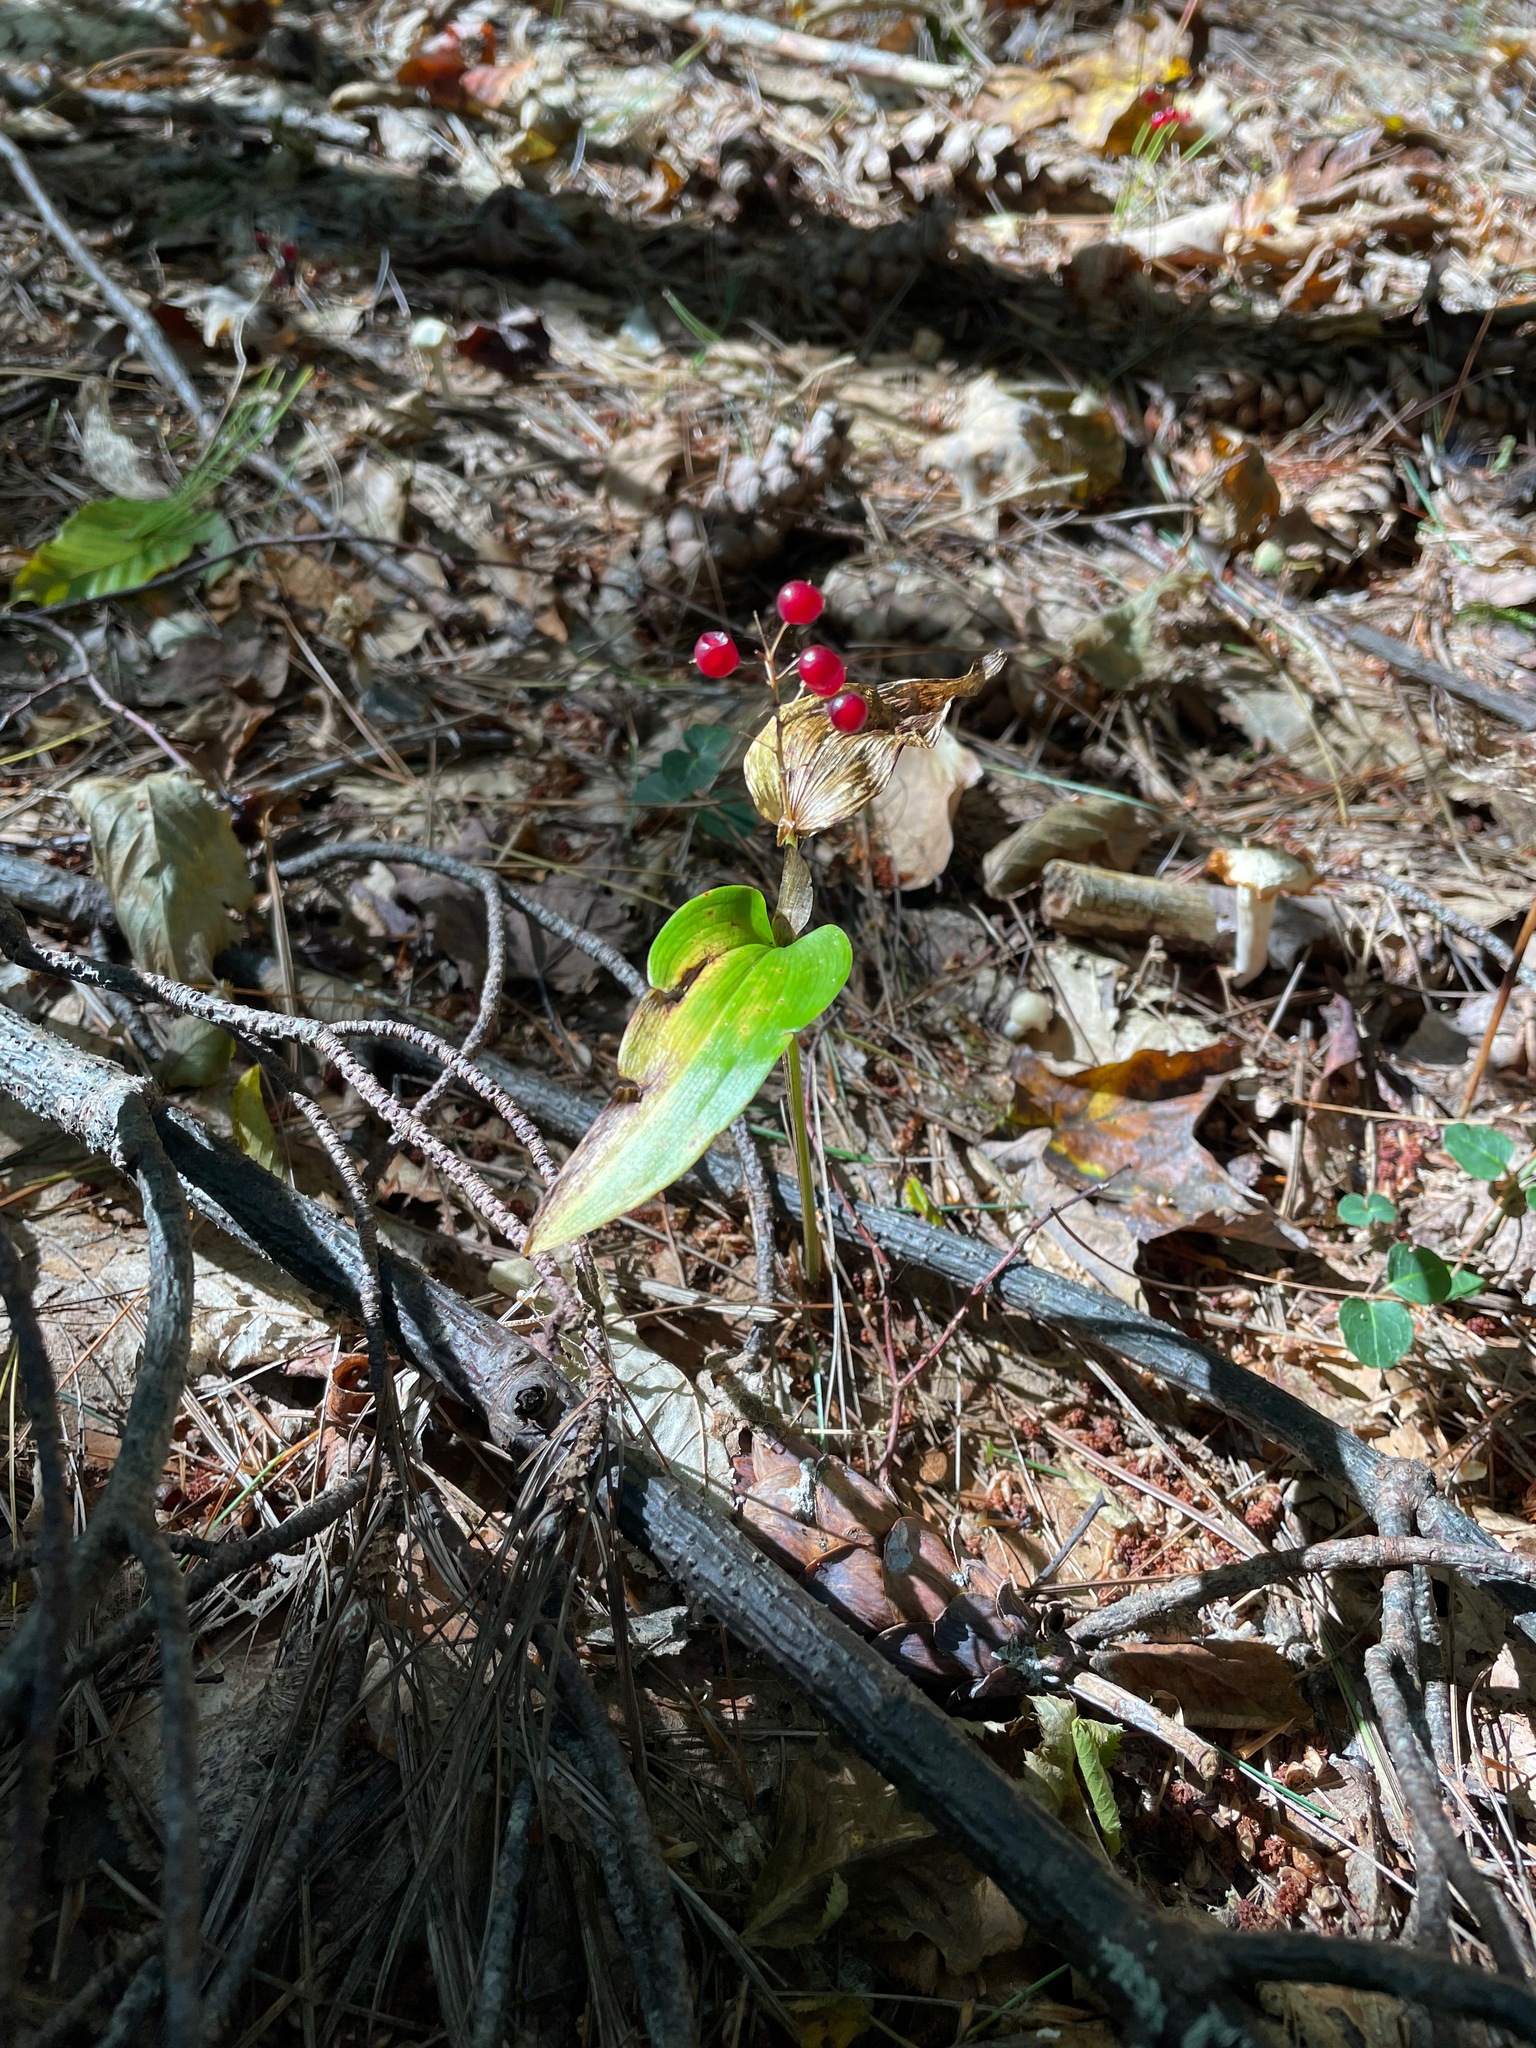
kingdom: Plantae
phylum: Tracheophyta
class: Liliopsida
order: Asparagales
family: Asparagaceae
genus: Maianthemum
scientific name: Maianthemum canadense
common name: False lily-of-the-valley
